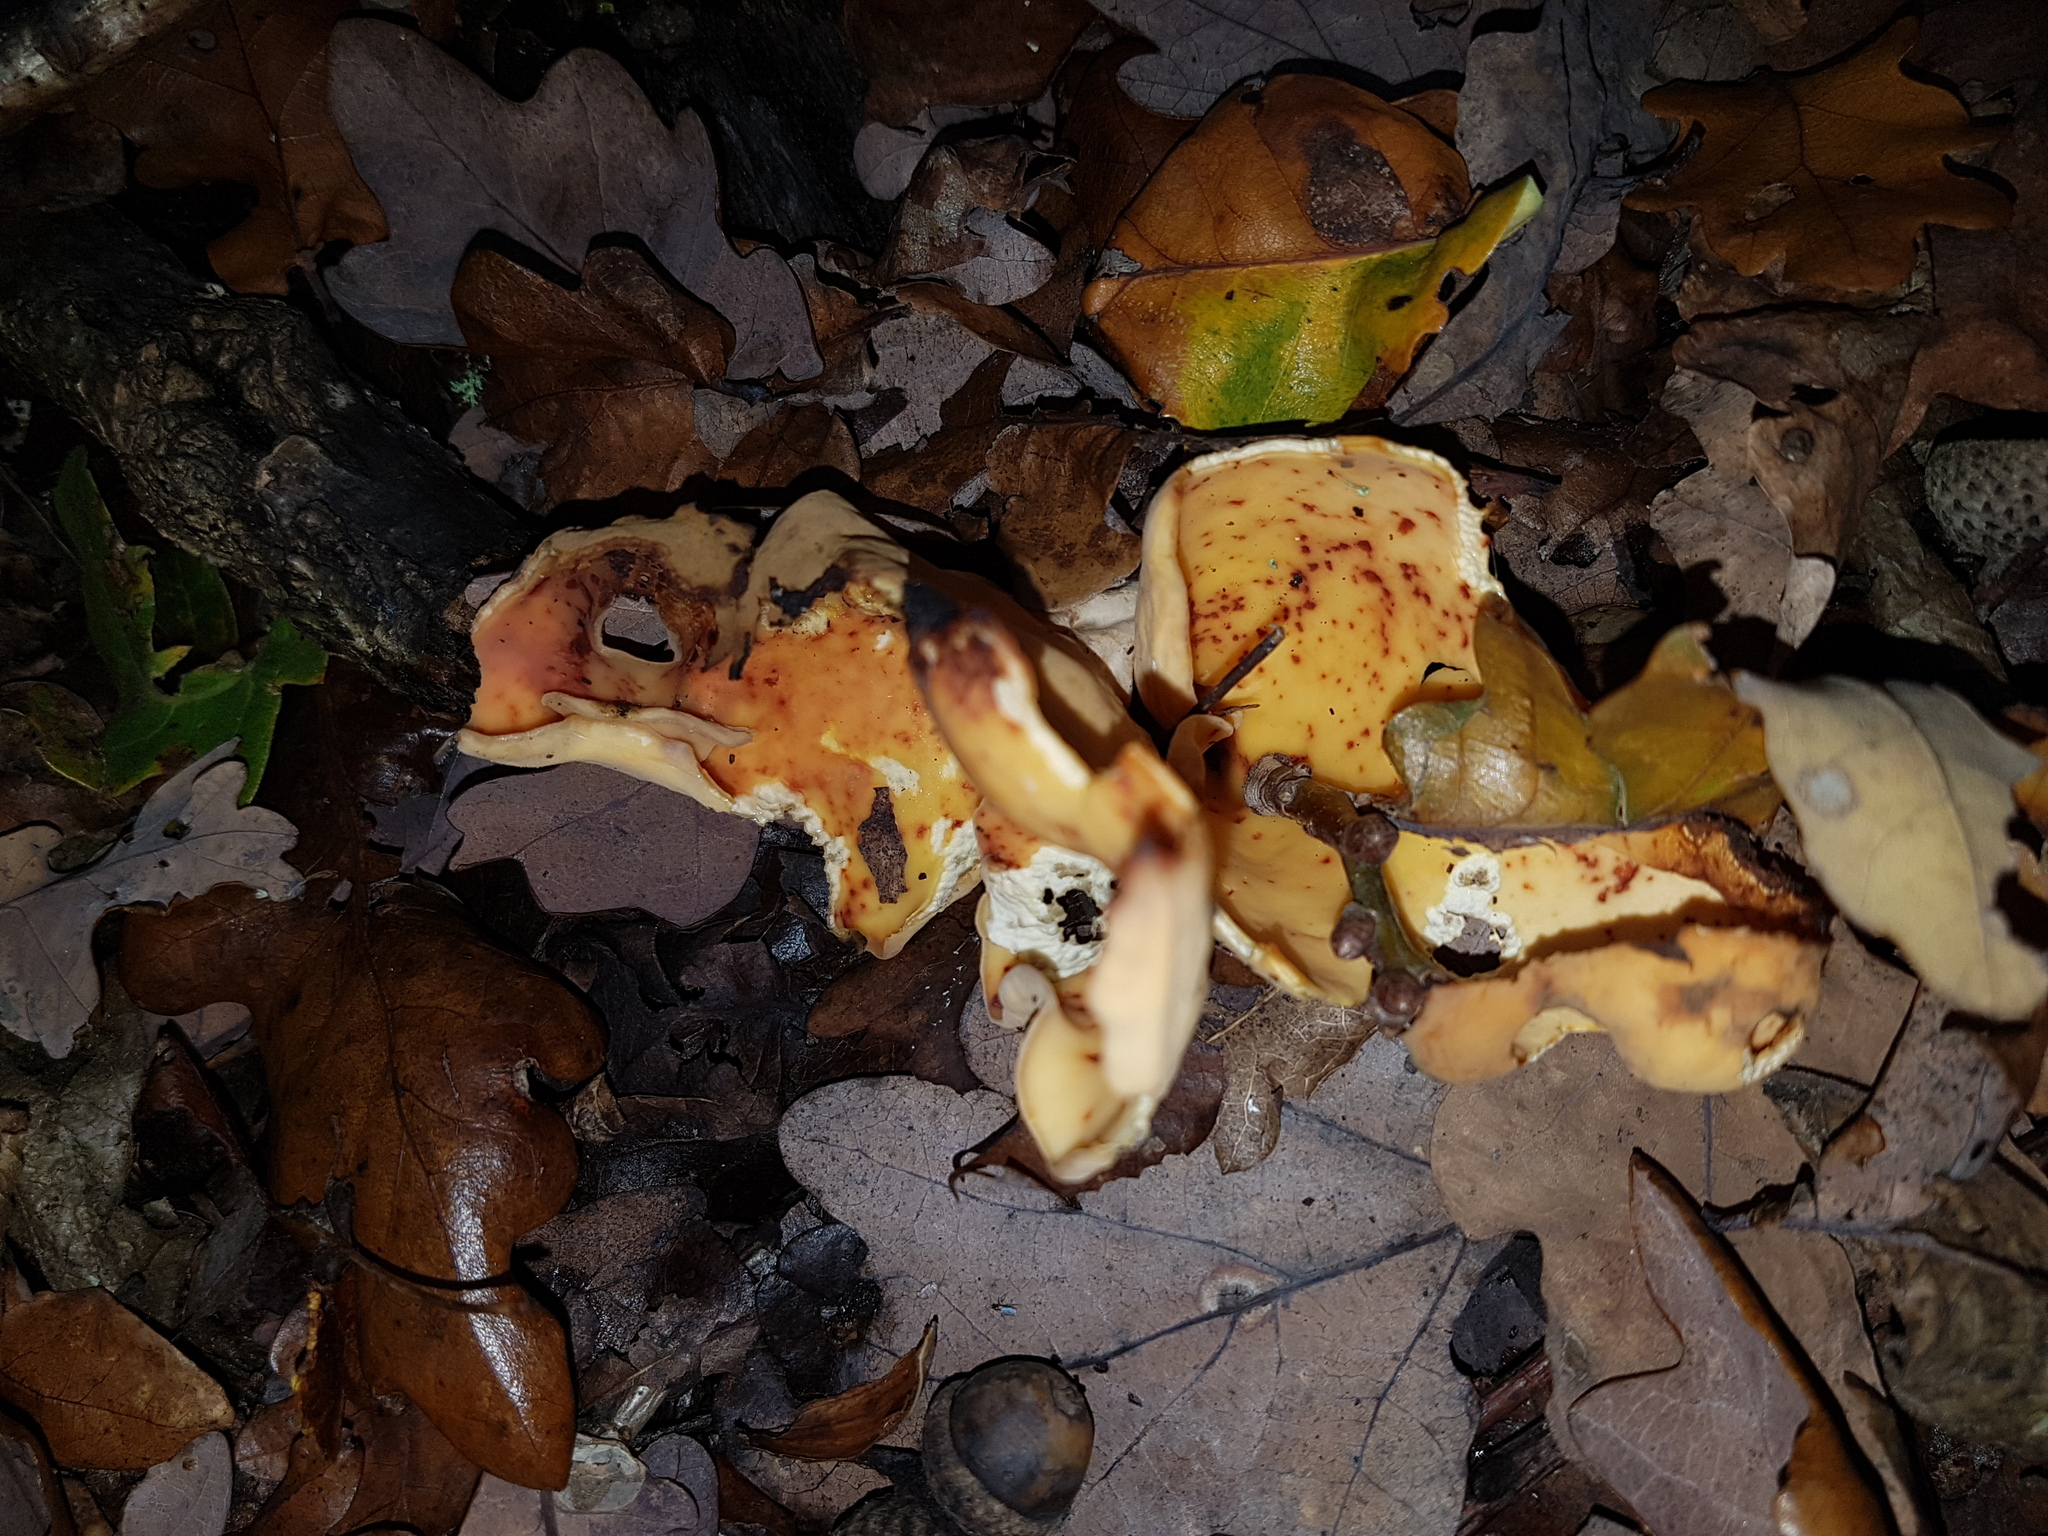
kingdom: Fungi
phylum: Ascomycota
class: Pezizomycetes
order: Pezizales
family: Otideaceae
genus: Otidea
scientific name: Otidea onotica
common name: Hare's ear
